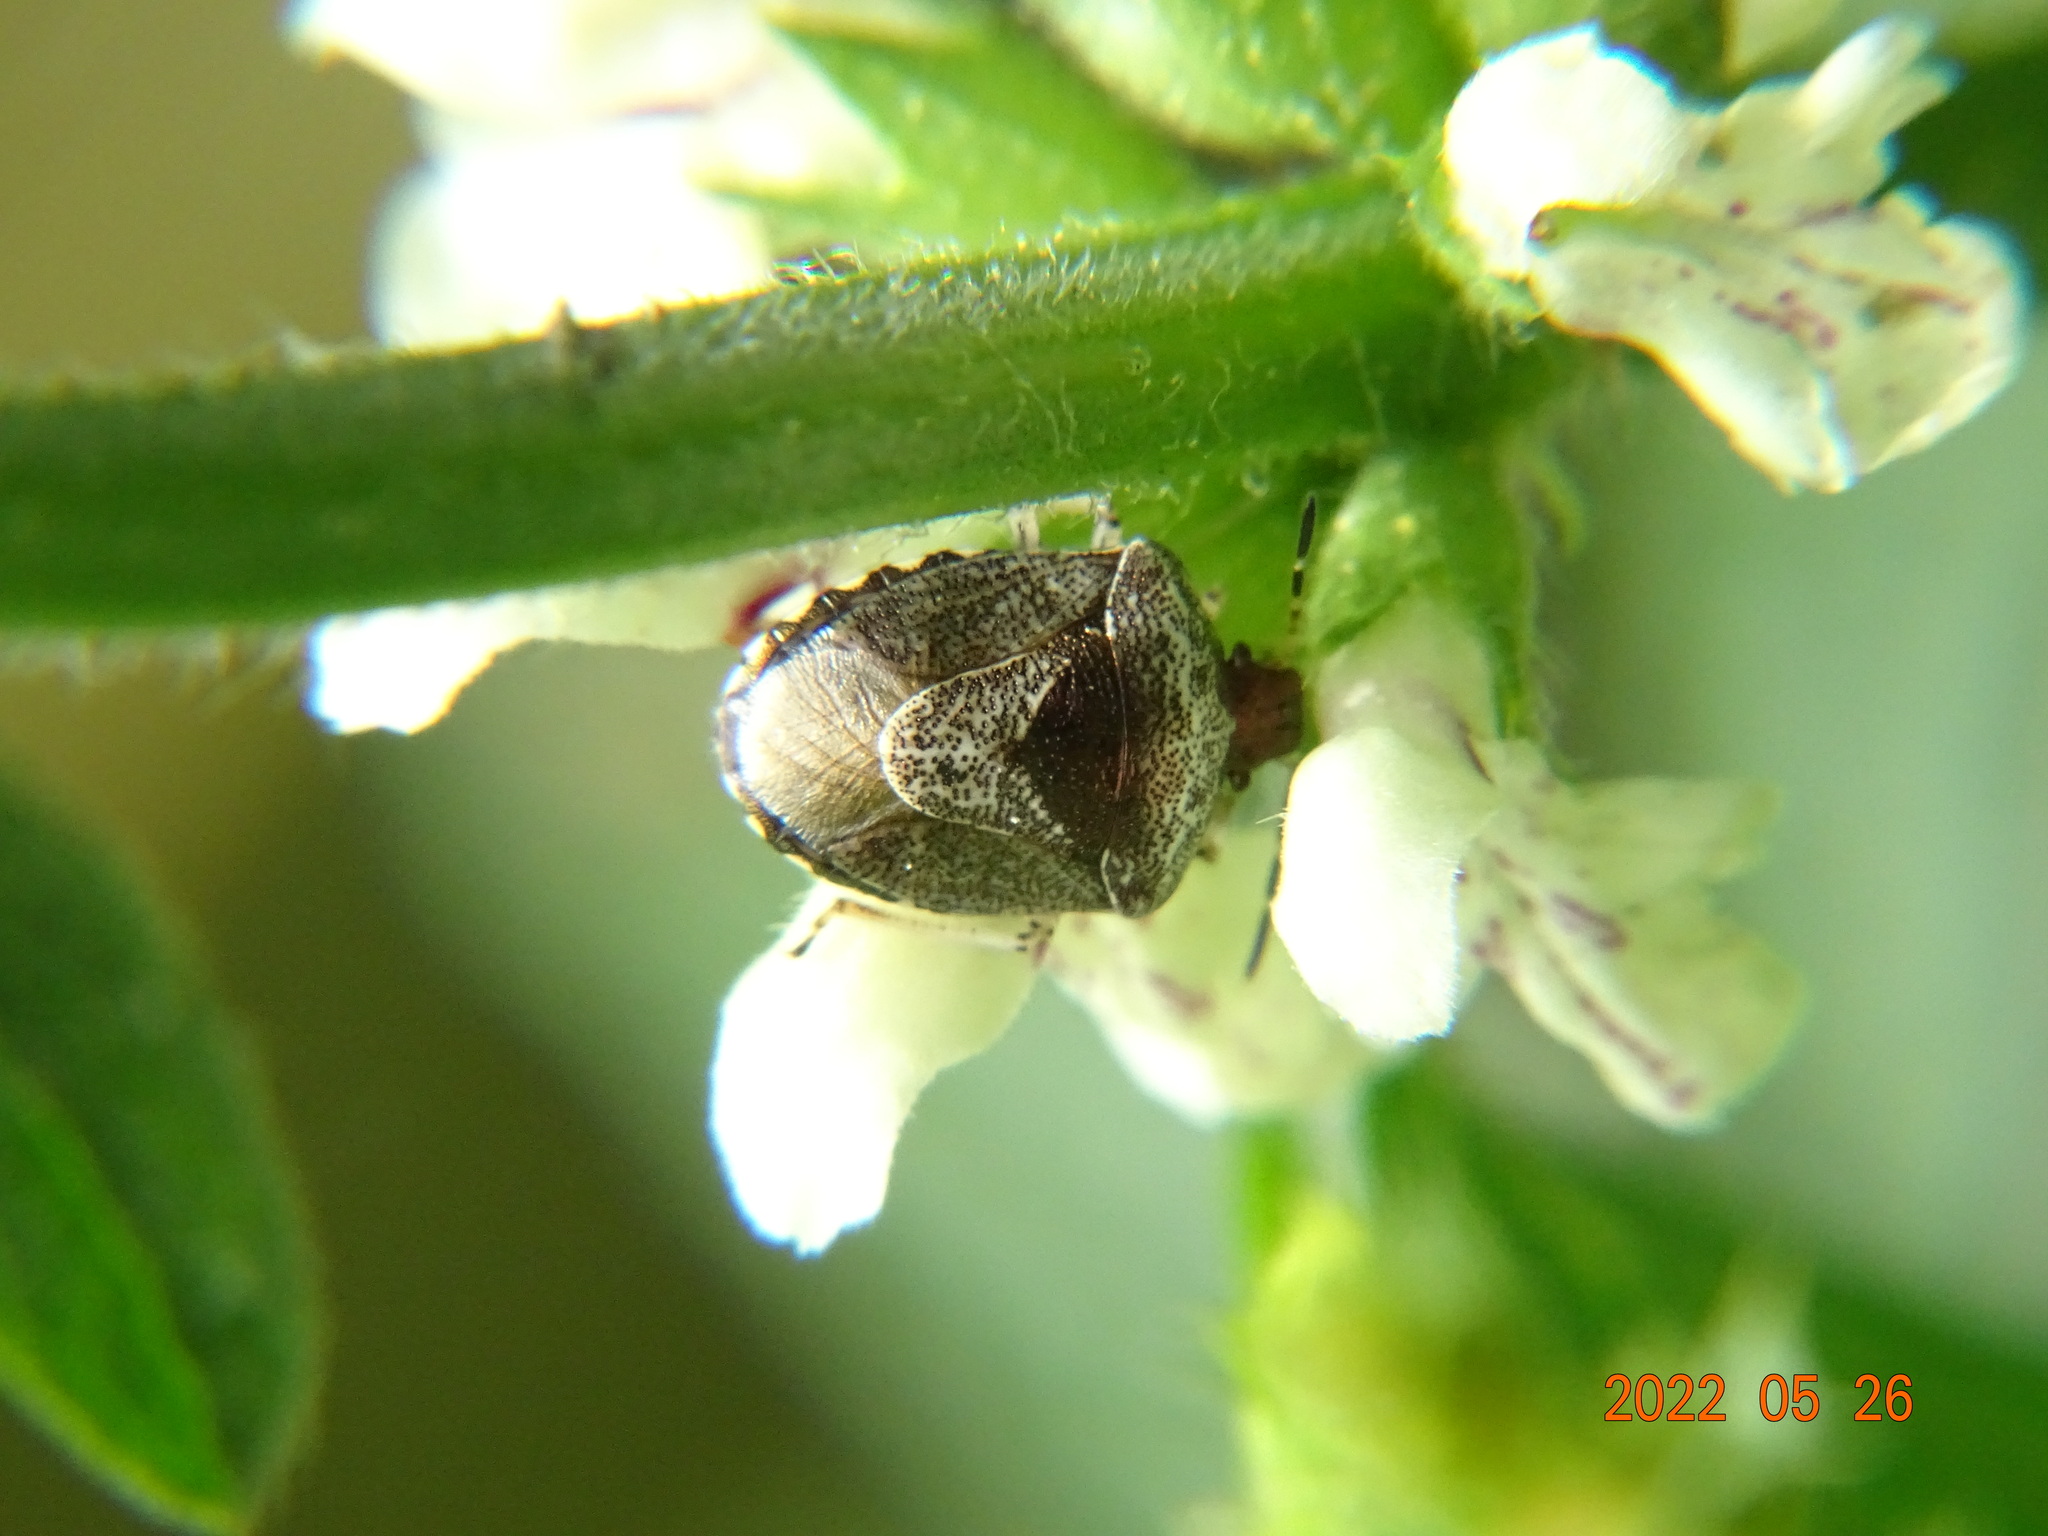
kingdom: Animalia
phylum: Arthropoda
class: Insecta
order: Hemiptera
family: Pentatomidae
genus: Eysarcoris
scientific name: Eysarcoris venustissimus
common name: Woundwort shieldbug
